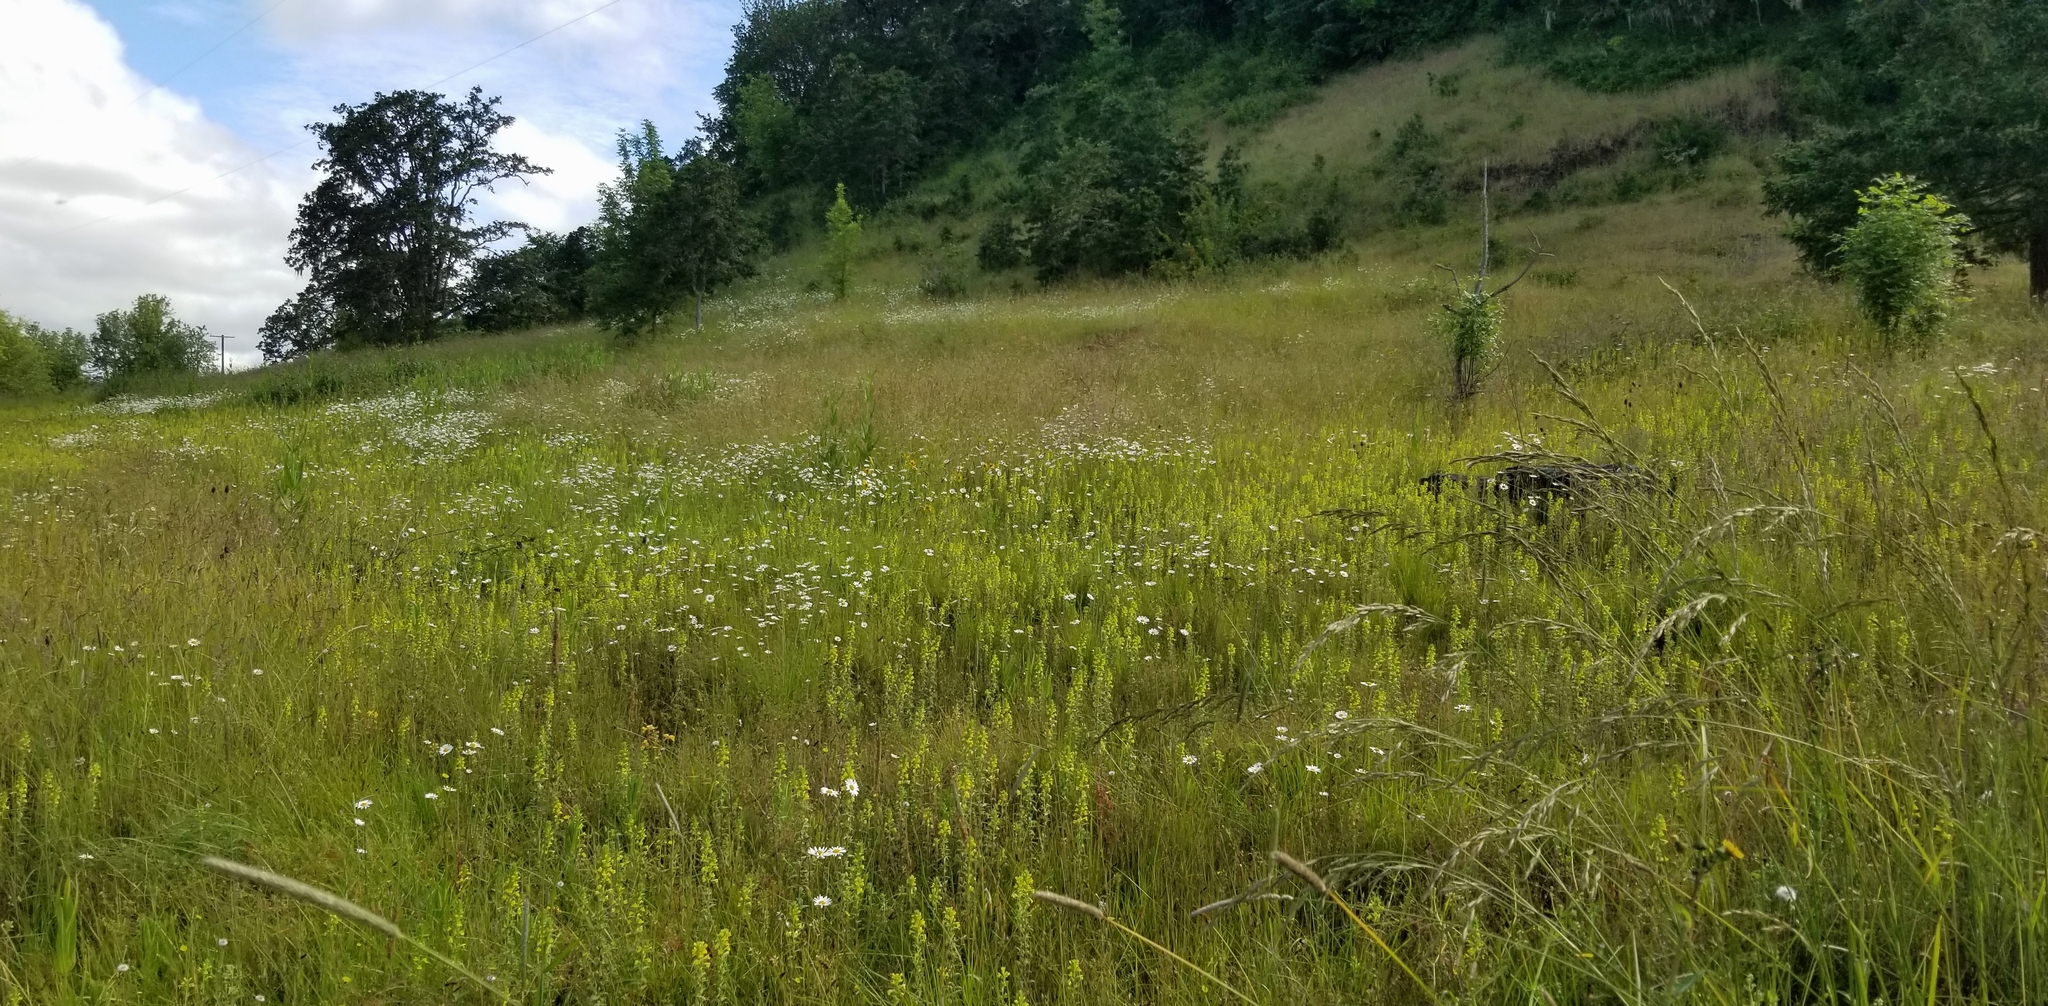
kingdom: Plantae
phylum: Tracheophyta
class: Magnoliopsida
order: Lamiales
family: Orobanchaceae
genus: Bellardia
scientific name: Bellardia viscosa
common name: Sticky parentucellia
